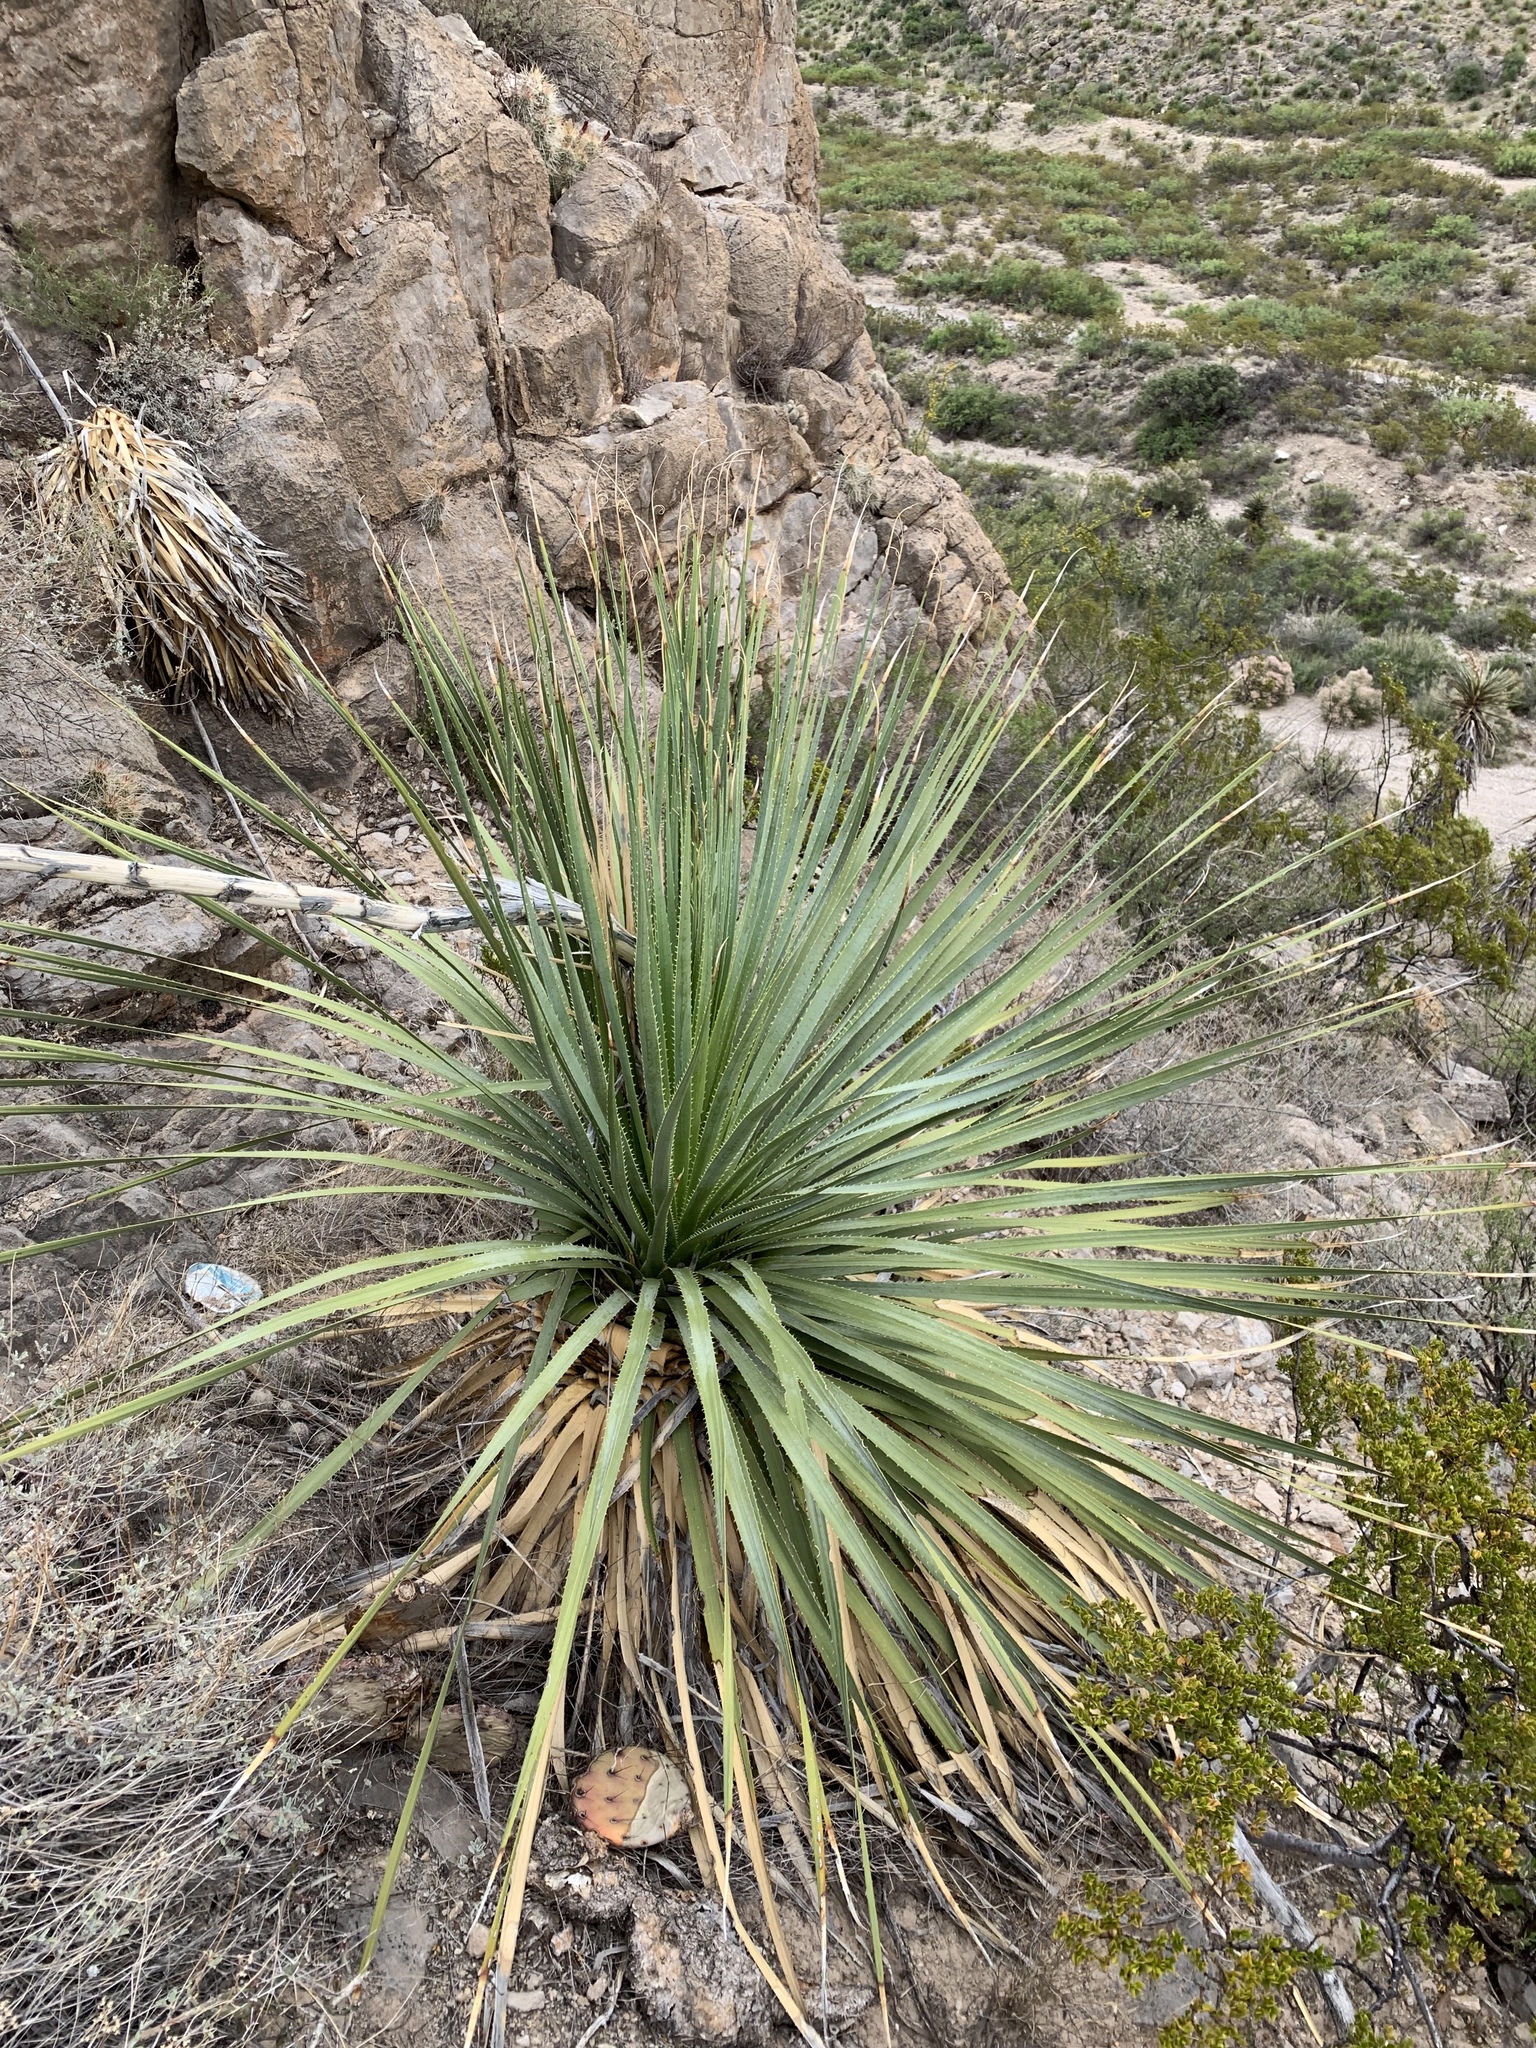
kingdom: Plantae
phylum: Tracheophyta
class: Liliopsida
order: Asparagales
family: Asparagaceae
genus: Dasylirion
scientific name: Dasylirion wheeleri
